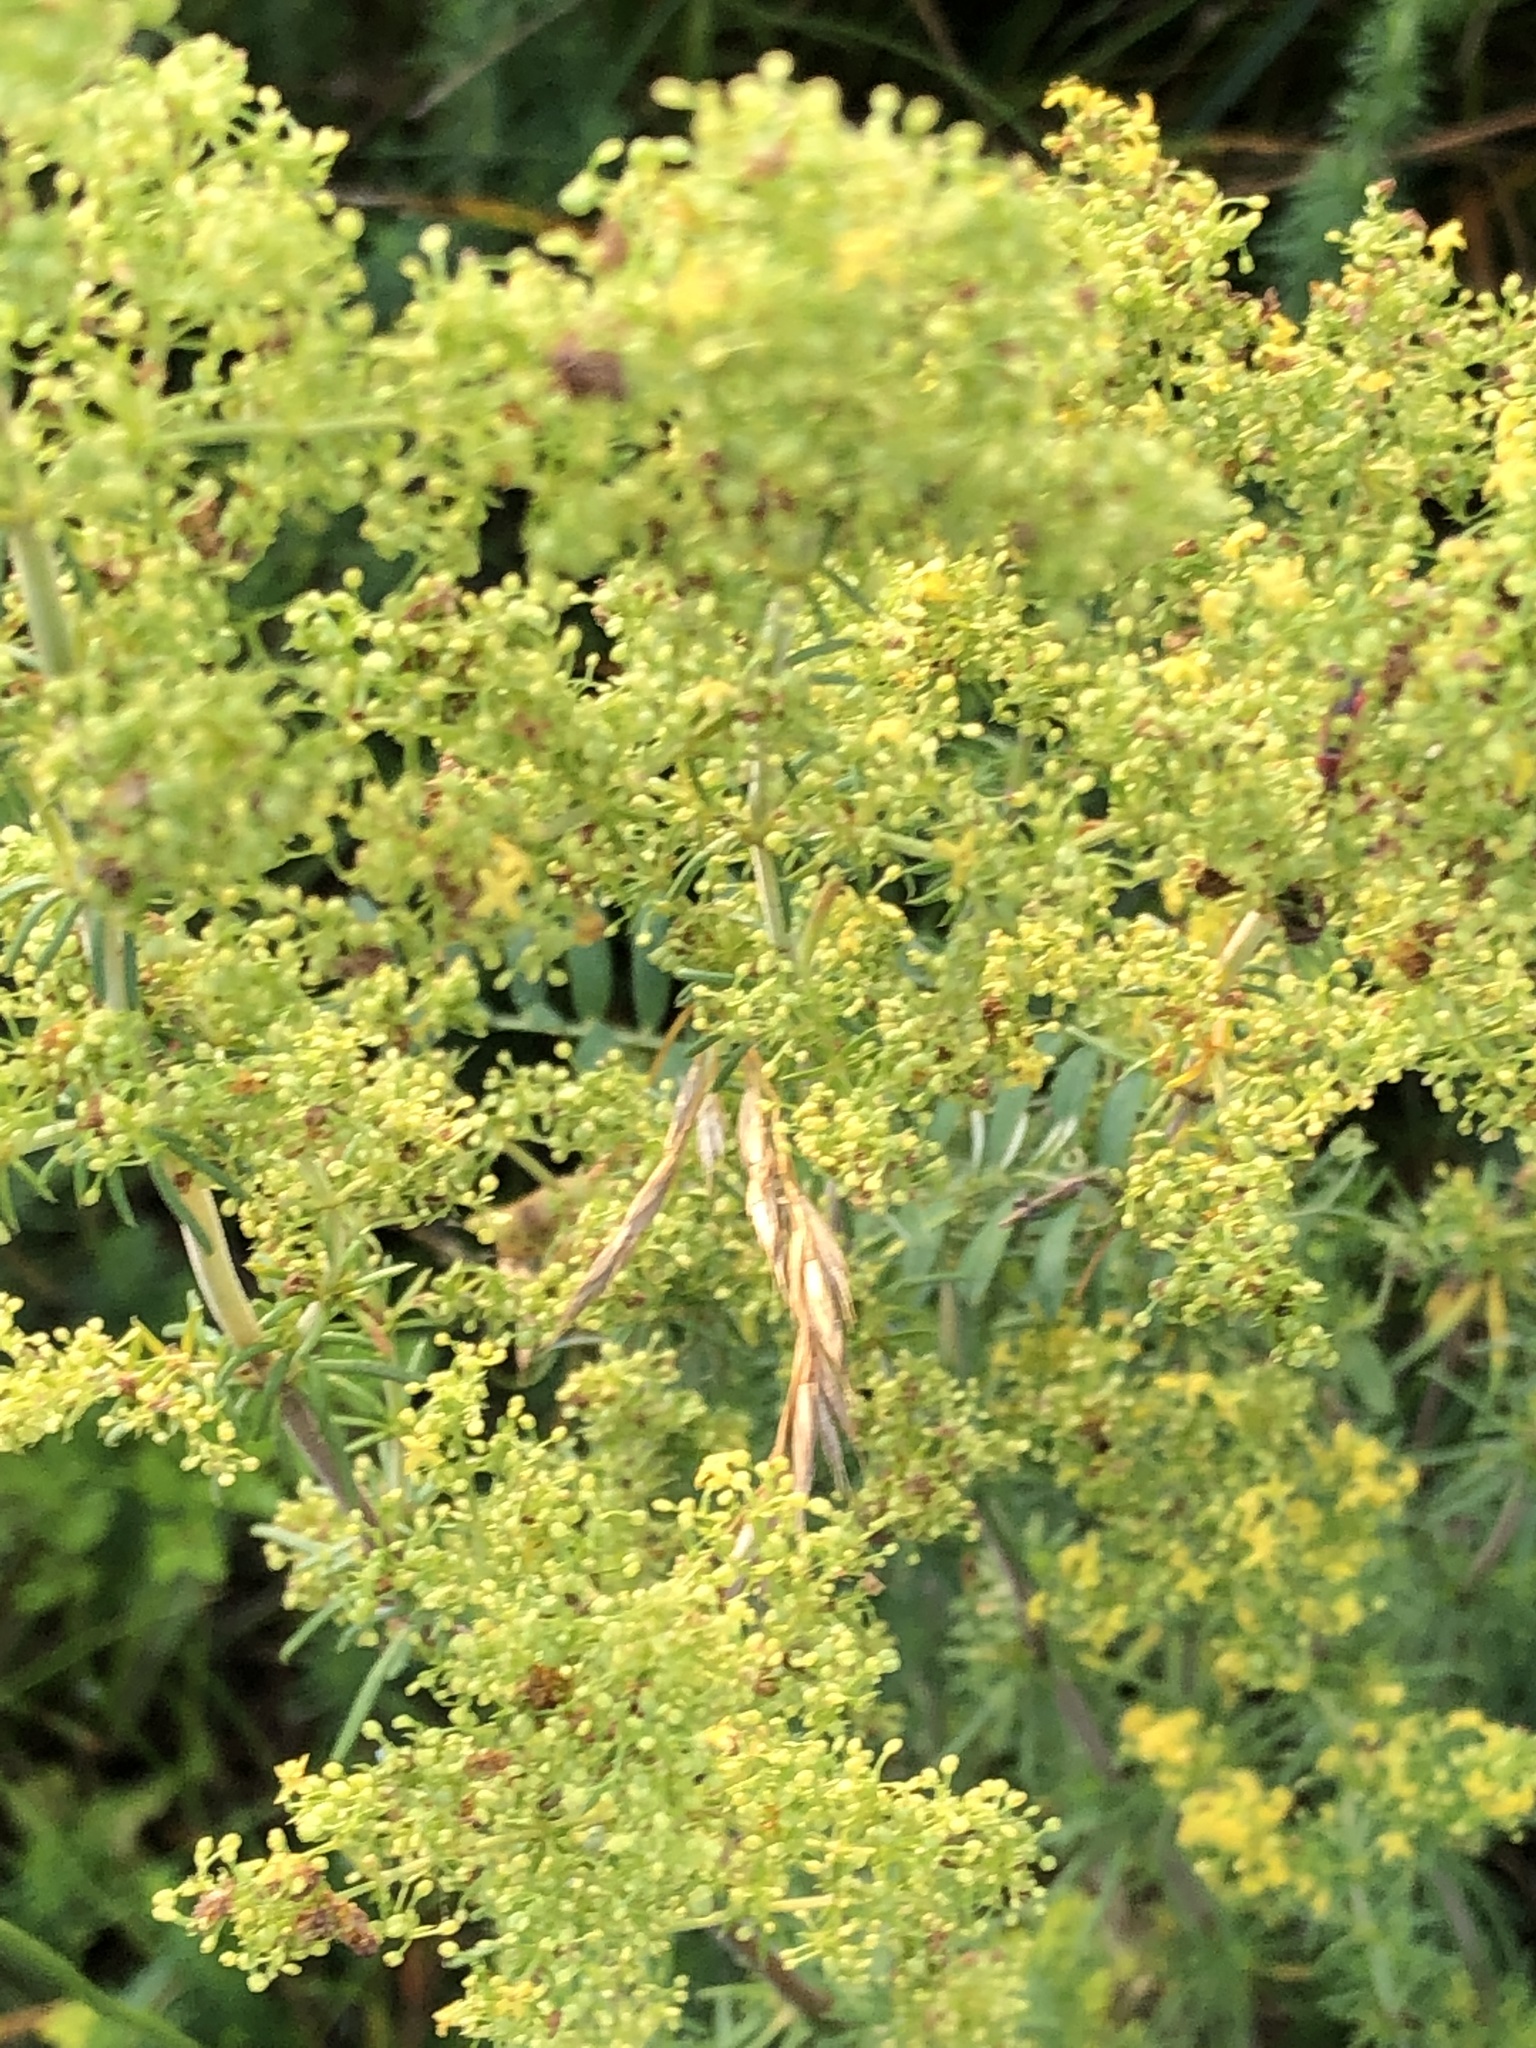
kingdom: Plantae
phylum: Tracheophyta
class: Magnoliopsida
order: Gentianales
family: Rubiaceae
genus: Galium
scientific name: Galium verum
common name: Lady's bedstraw
